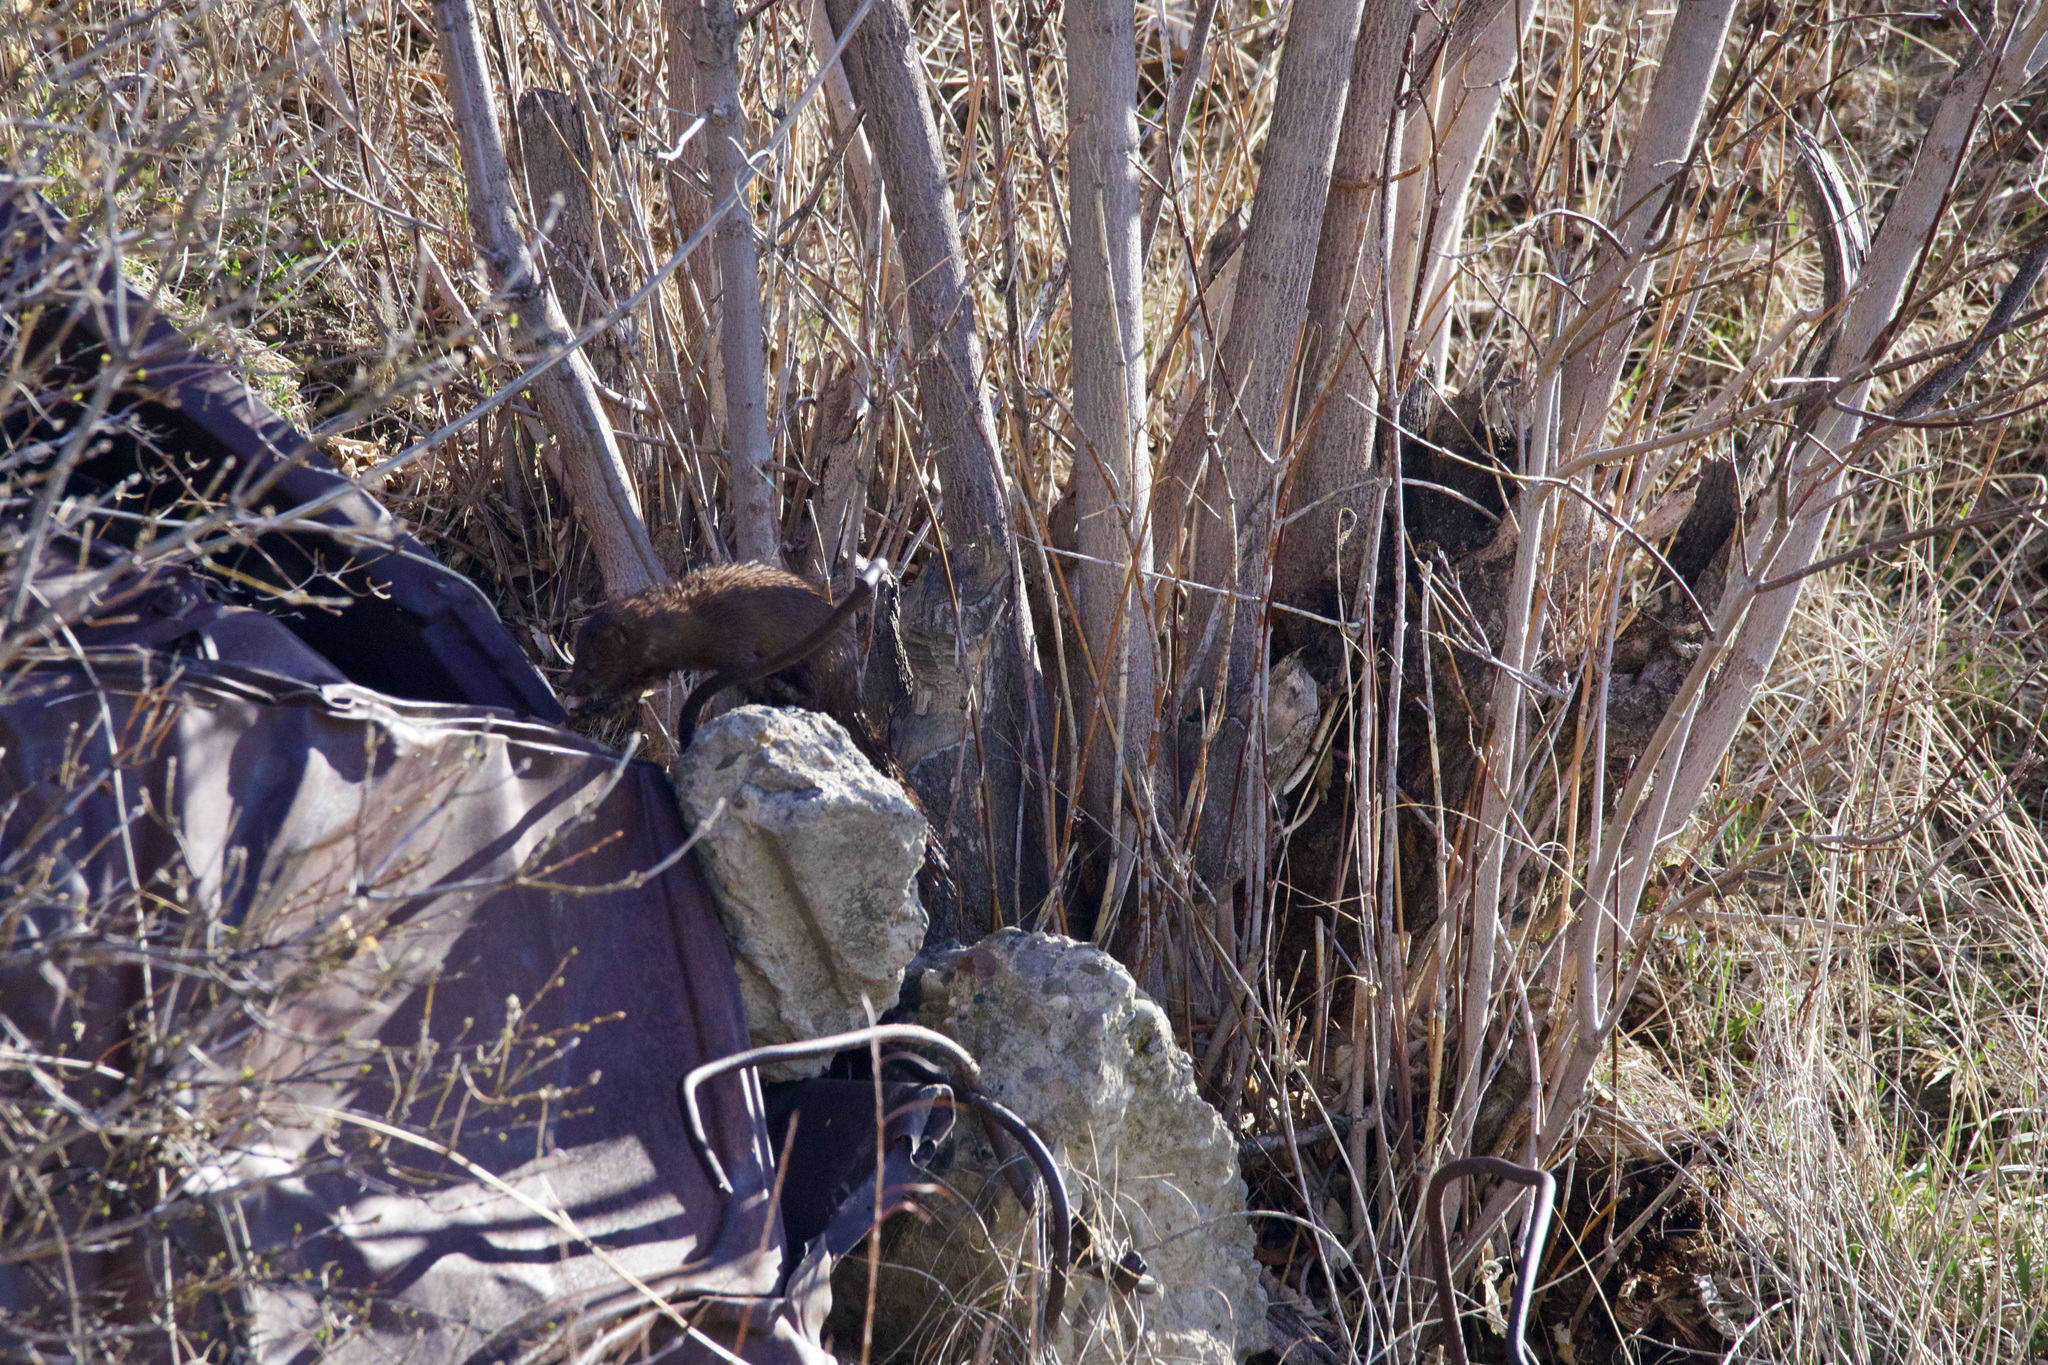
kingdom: Animalia
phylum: Chordata
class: Mammalia
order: Carnivora
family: Mustelidae
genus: Mustela
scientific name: Mustela
